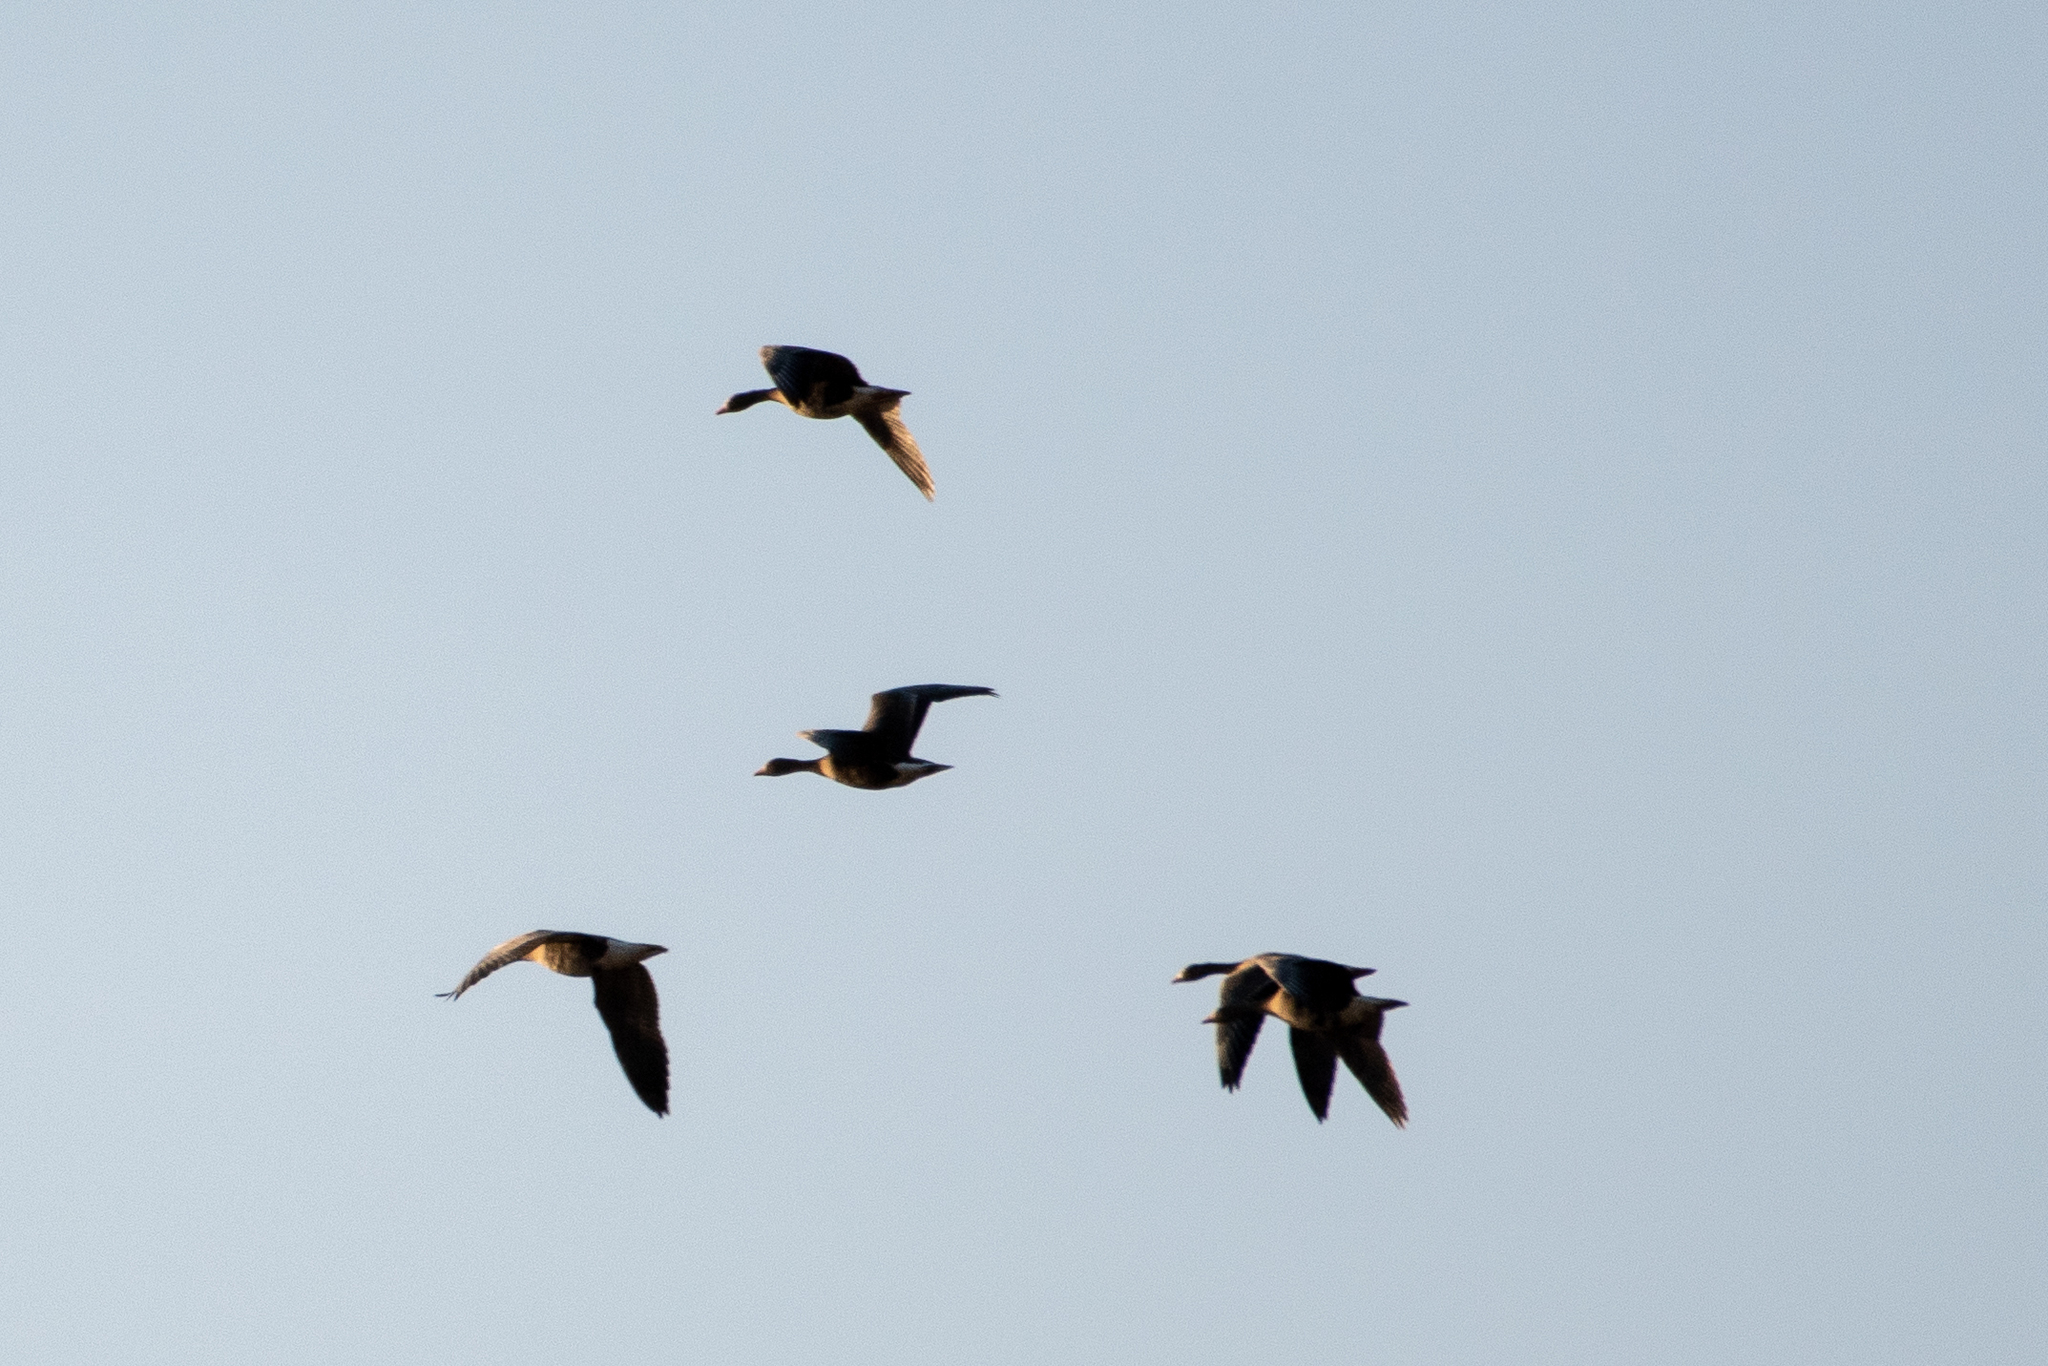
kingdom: Animalia
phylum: Chordata
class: Aves
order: Anseriformes
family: Anatidae
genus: Anser
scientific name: Anser albifrons
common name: Greater white-fronted goose
